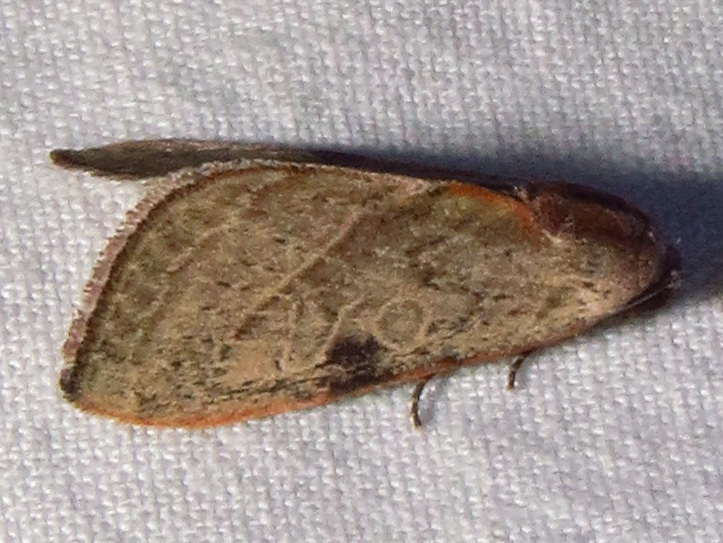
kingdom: Animalia
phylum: Arthropoda
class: Insecta
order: Lepidoptera
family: Noctuidae
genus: Galgula
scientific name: Galgula partita
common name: Wedgeling
